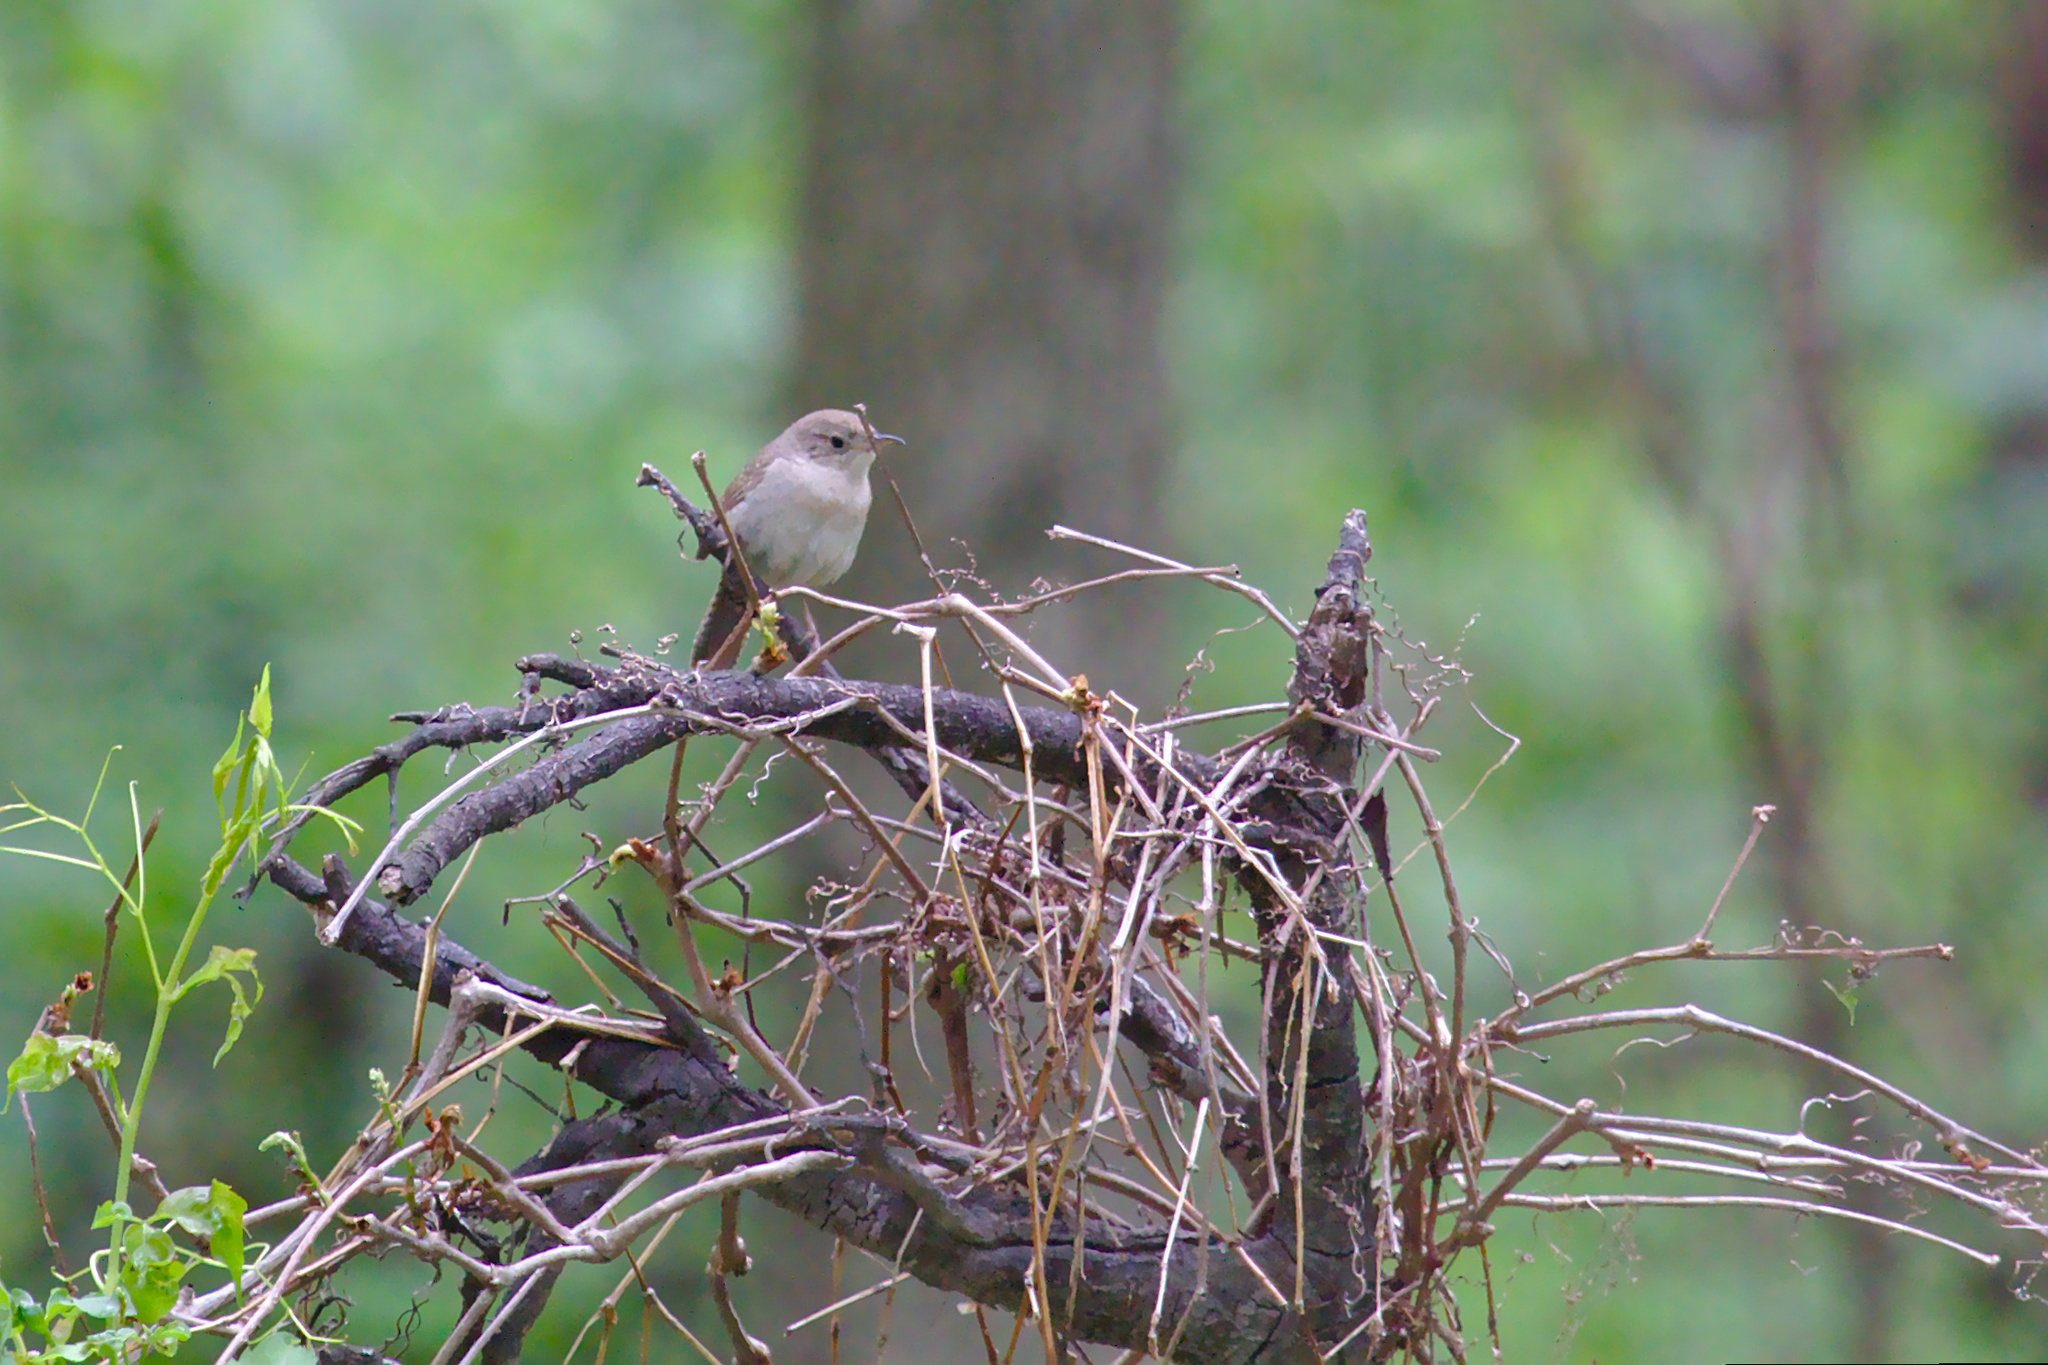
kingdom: Animalia
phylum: Chordata
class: Aves
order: Passeriformes
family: Troglodytidae
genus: Troglodytes
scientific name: Troglodytes aedon
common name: House wren
